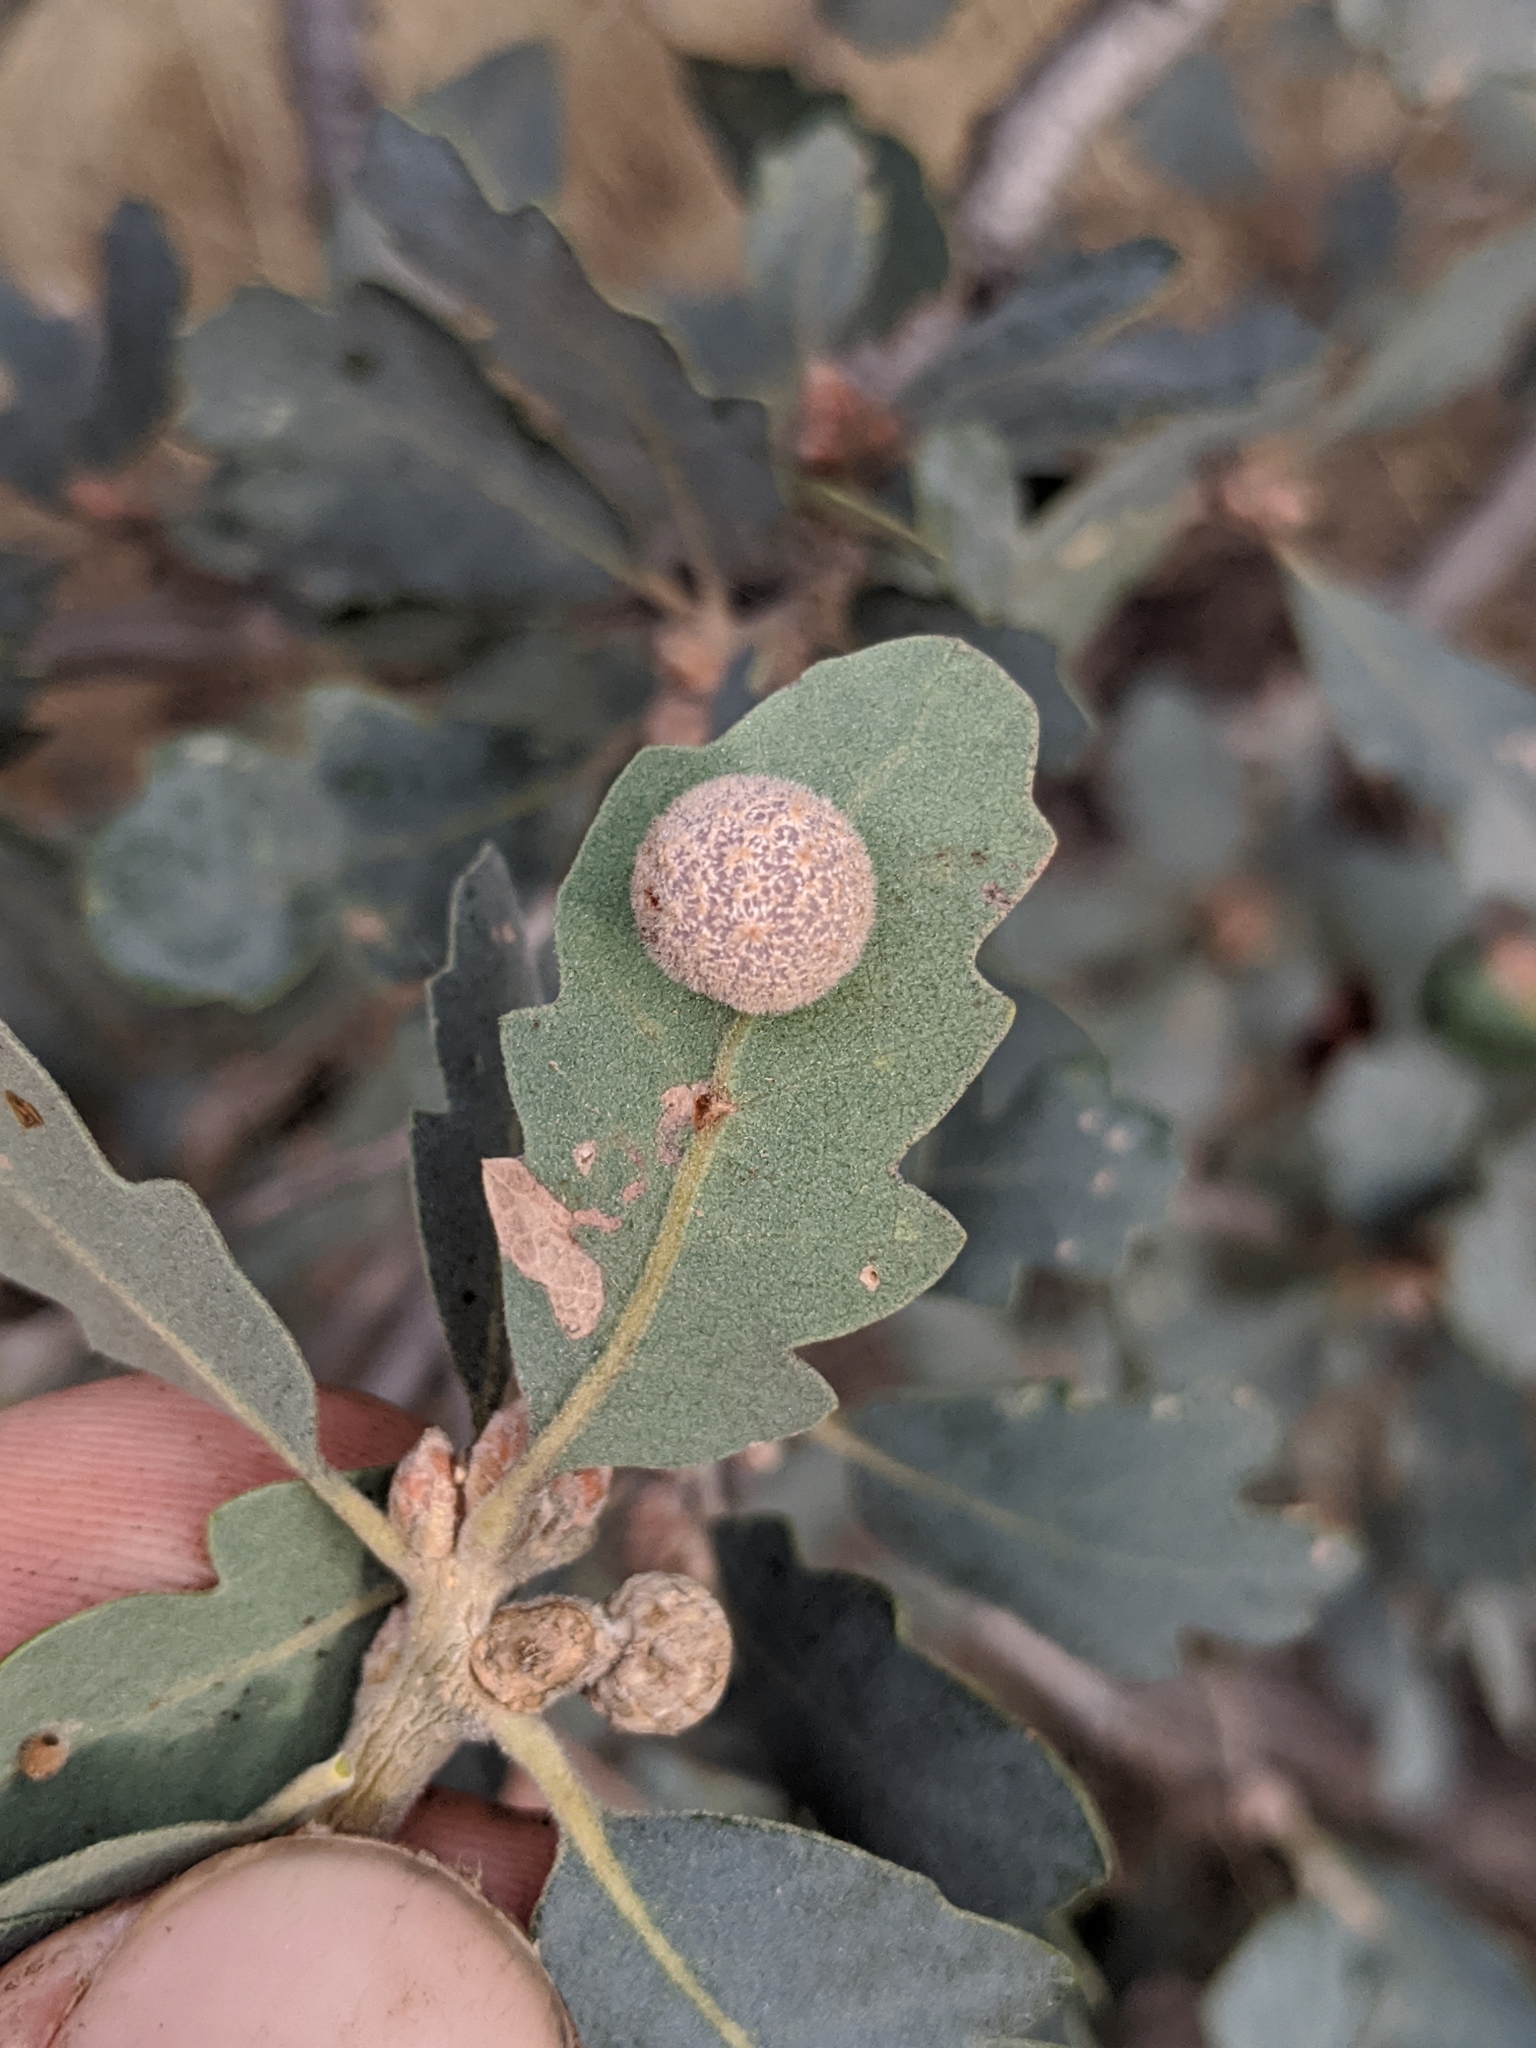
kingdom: Animalia
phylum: Arthropoda
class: Insecta
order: Hymenoptera
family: Cynipidae
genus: Cynips
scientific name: Cynips
